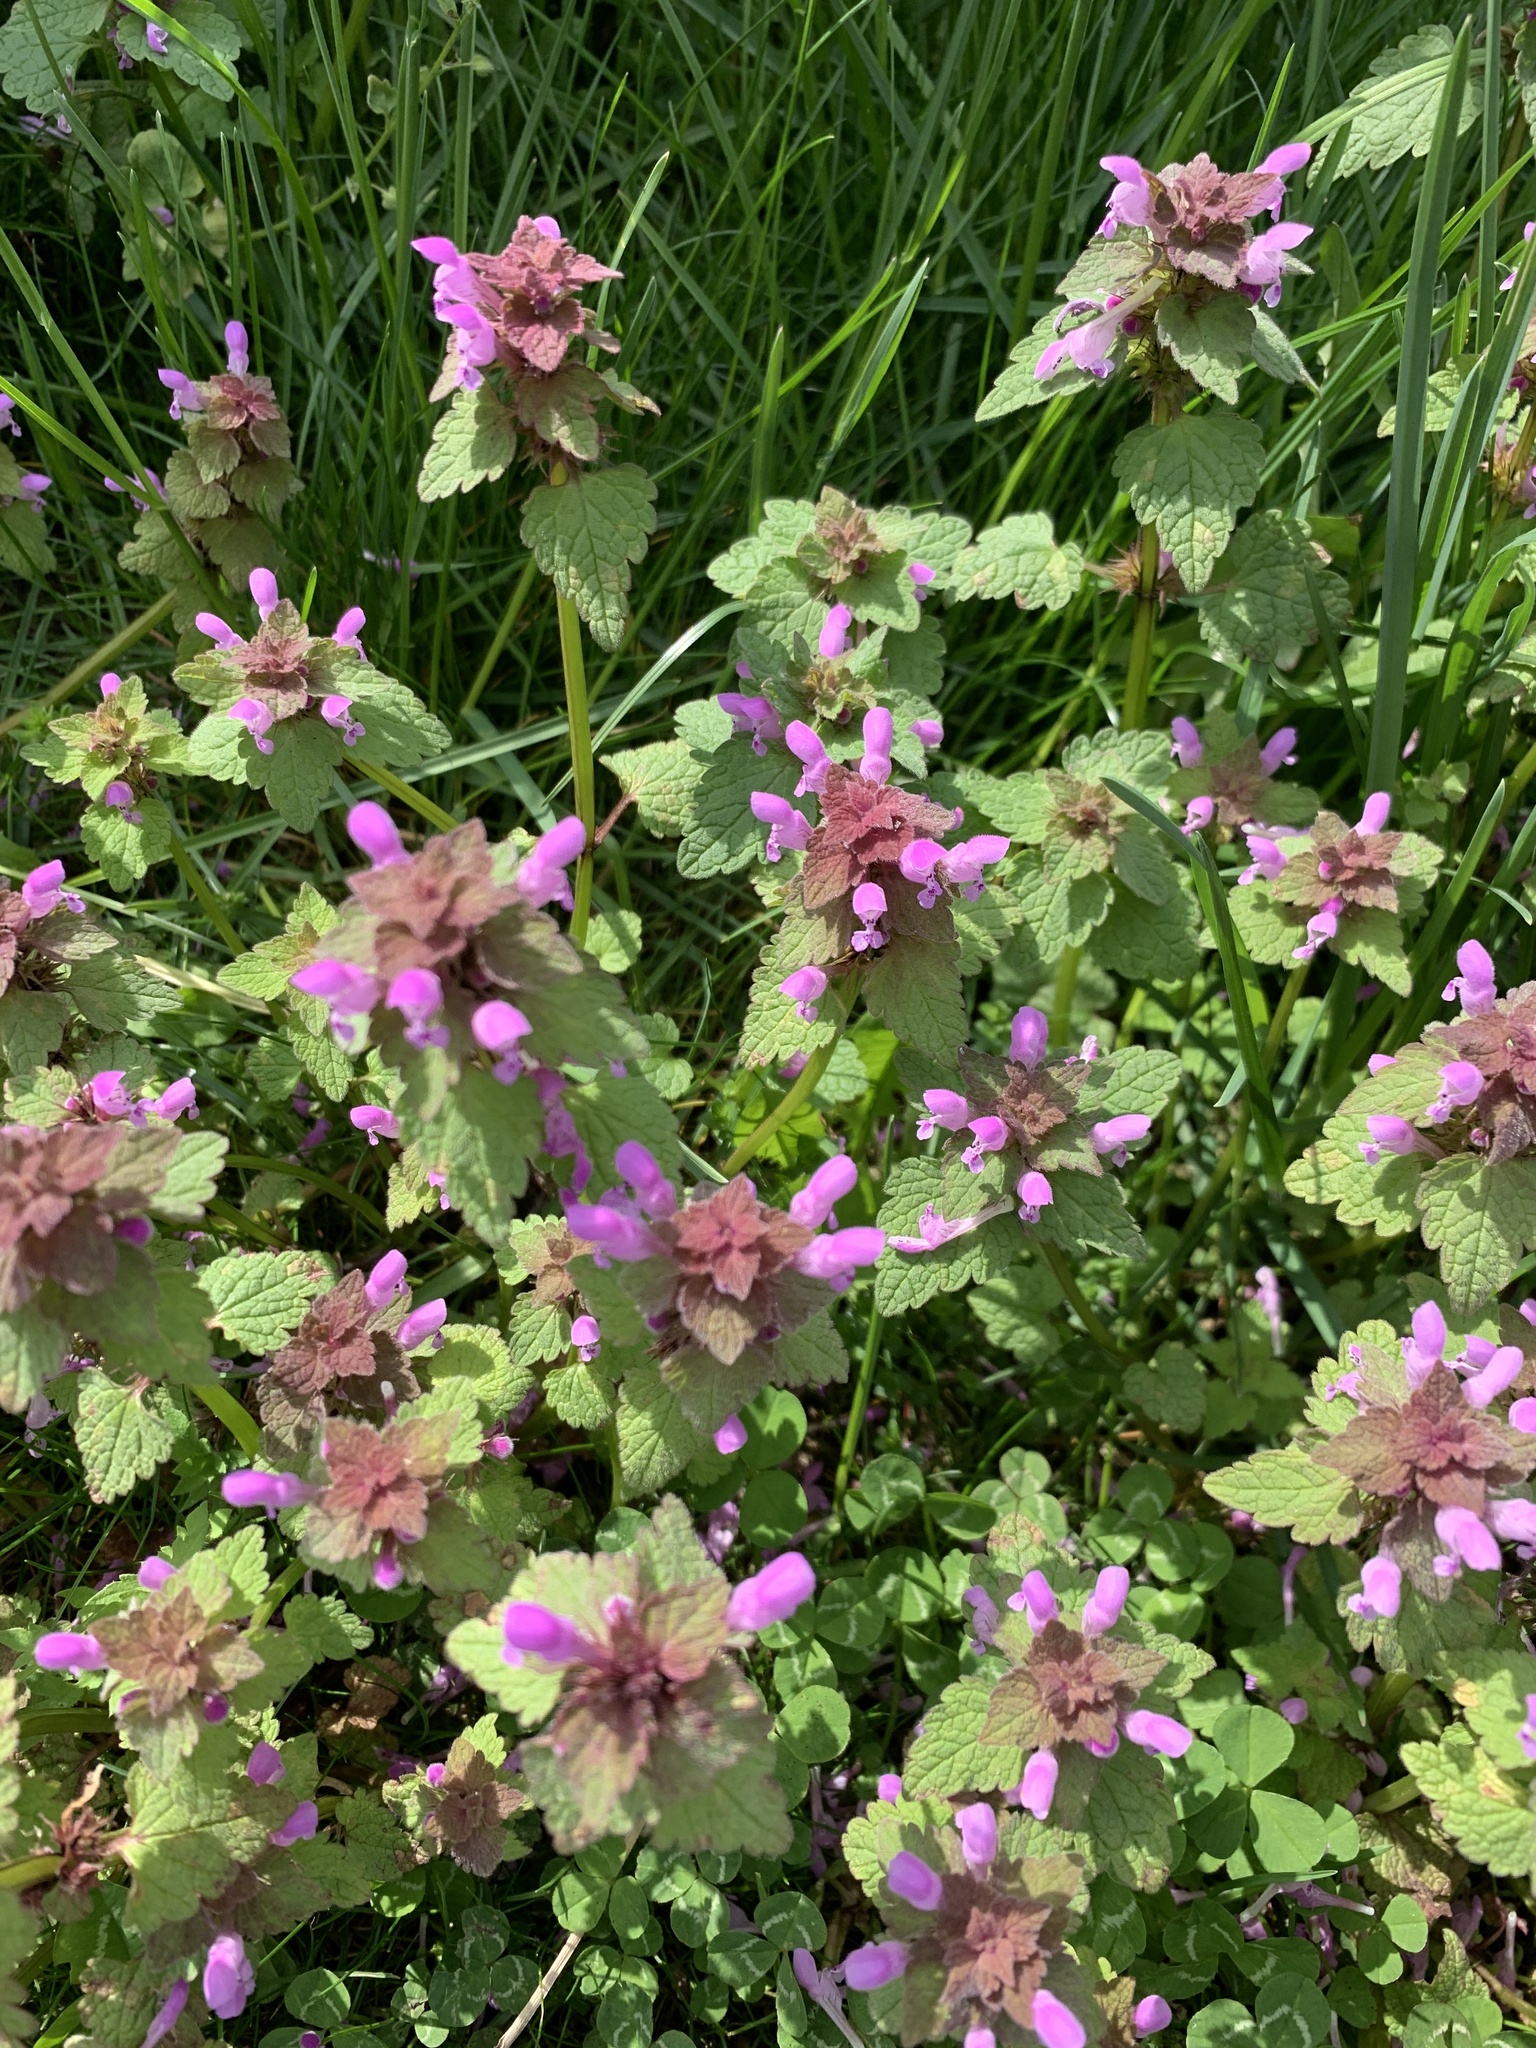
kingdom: Plantae
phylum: Tracheophyta
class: Magnoliopsida
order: Lamiales
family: Lamiaceae
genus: Lamium
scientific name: Lamium purpureum
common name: Red dead-nettle
